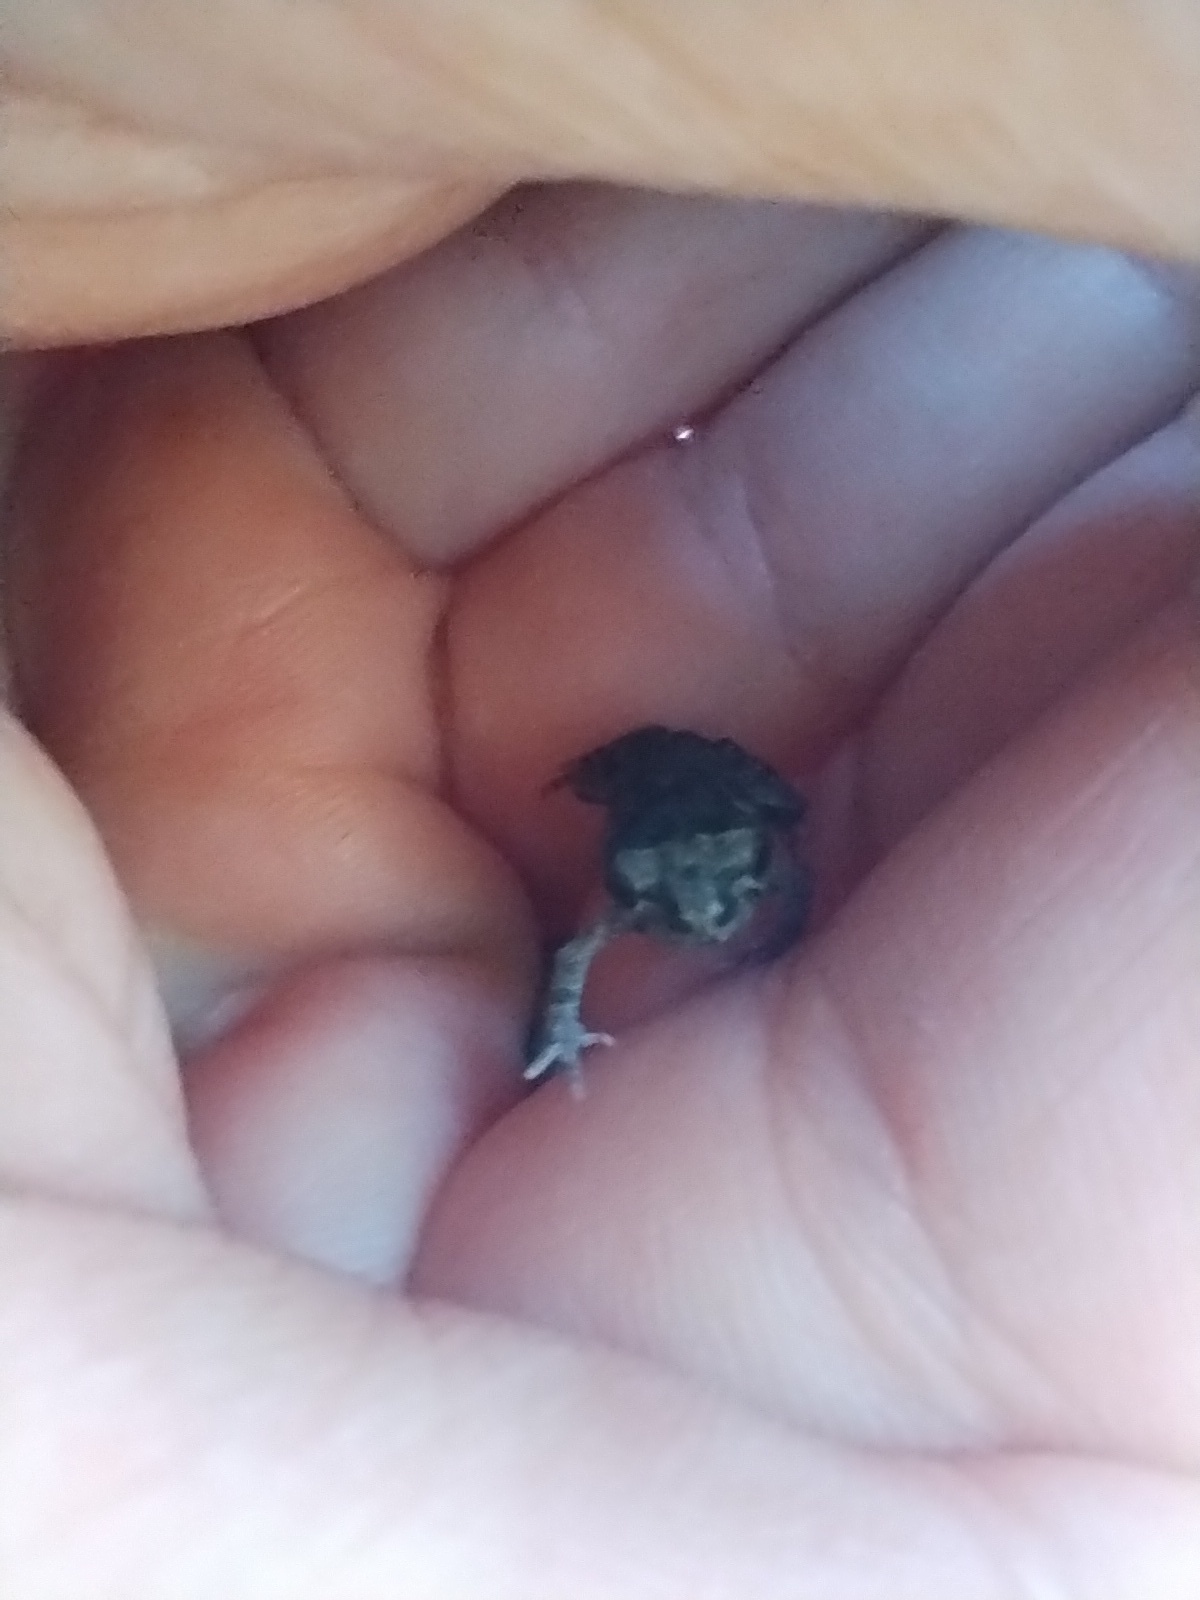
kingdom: Animalia
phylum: Chordata
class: Amphibia
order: Anura
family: Bufonidae
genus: Rhinella
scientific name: Rhinella arenarum
